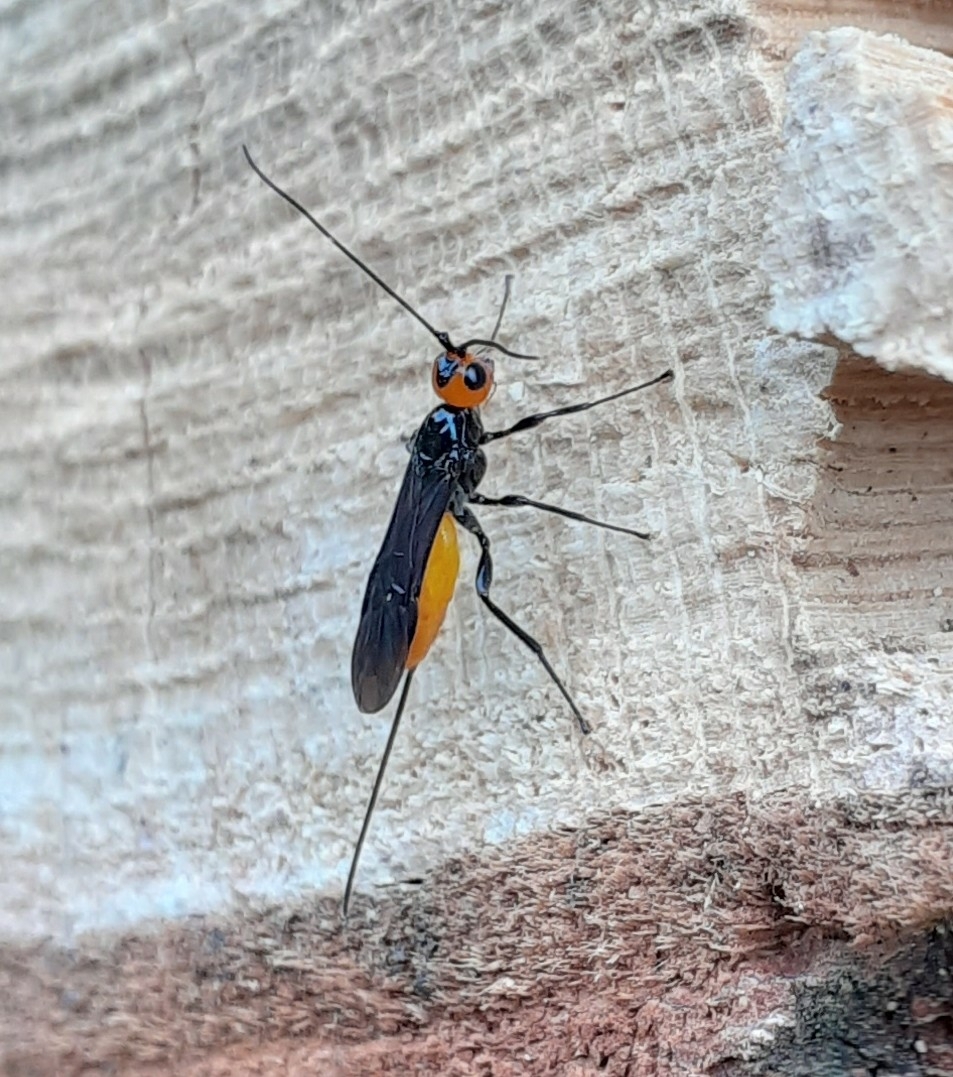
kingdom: Animalia
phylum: Arthropoda
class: Insecta
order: Hymenoptera
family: Braconidae
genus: Coeloides
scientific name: Coeloides bostrichorum
